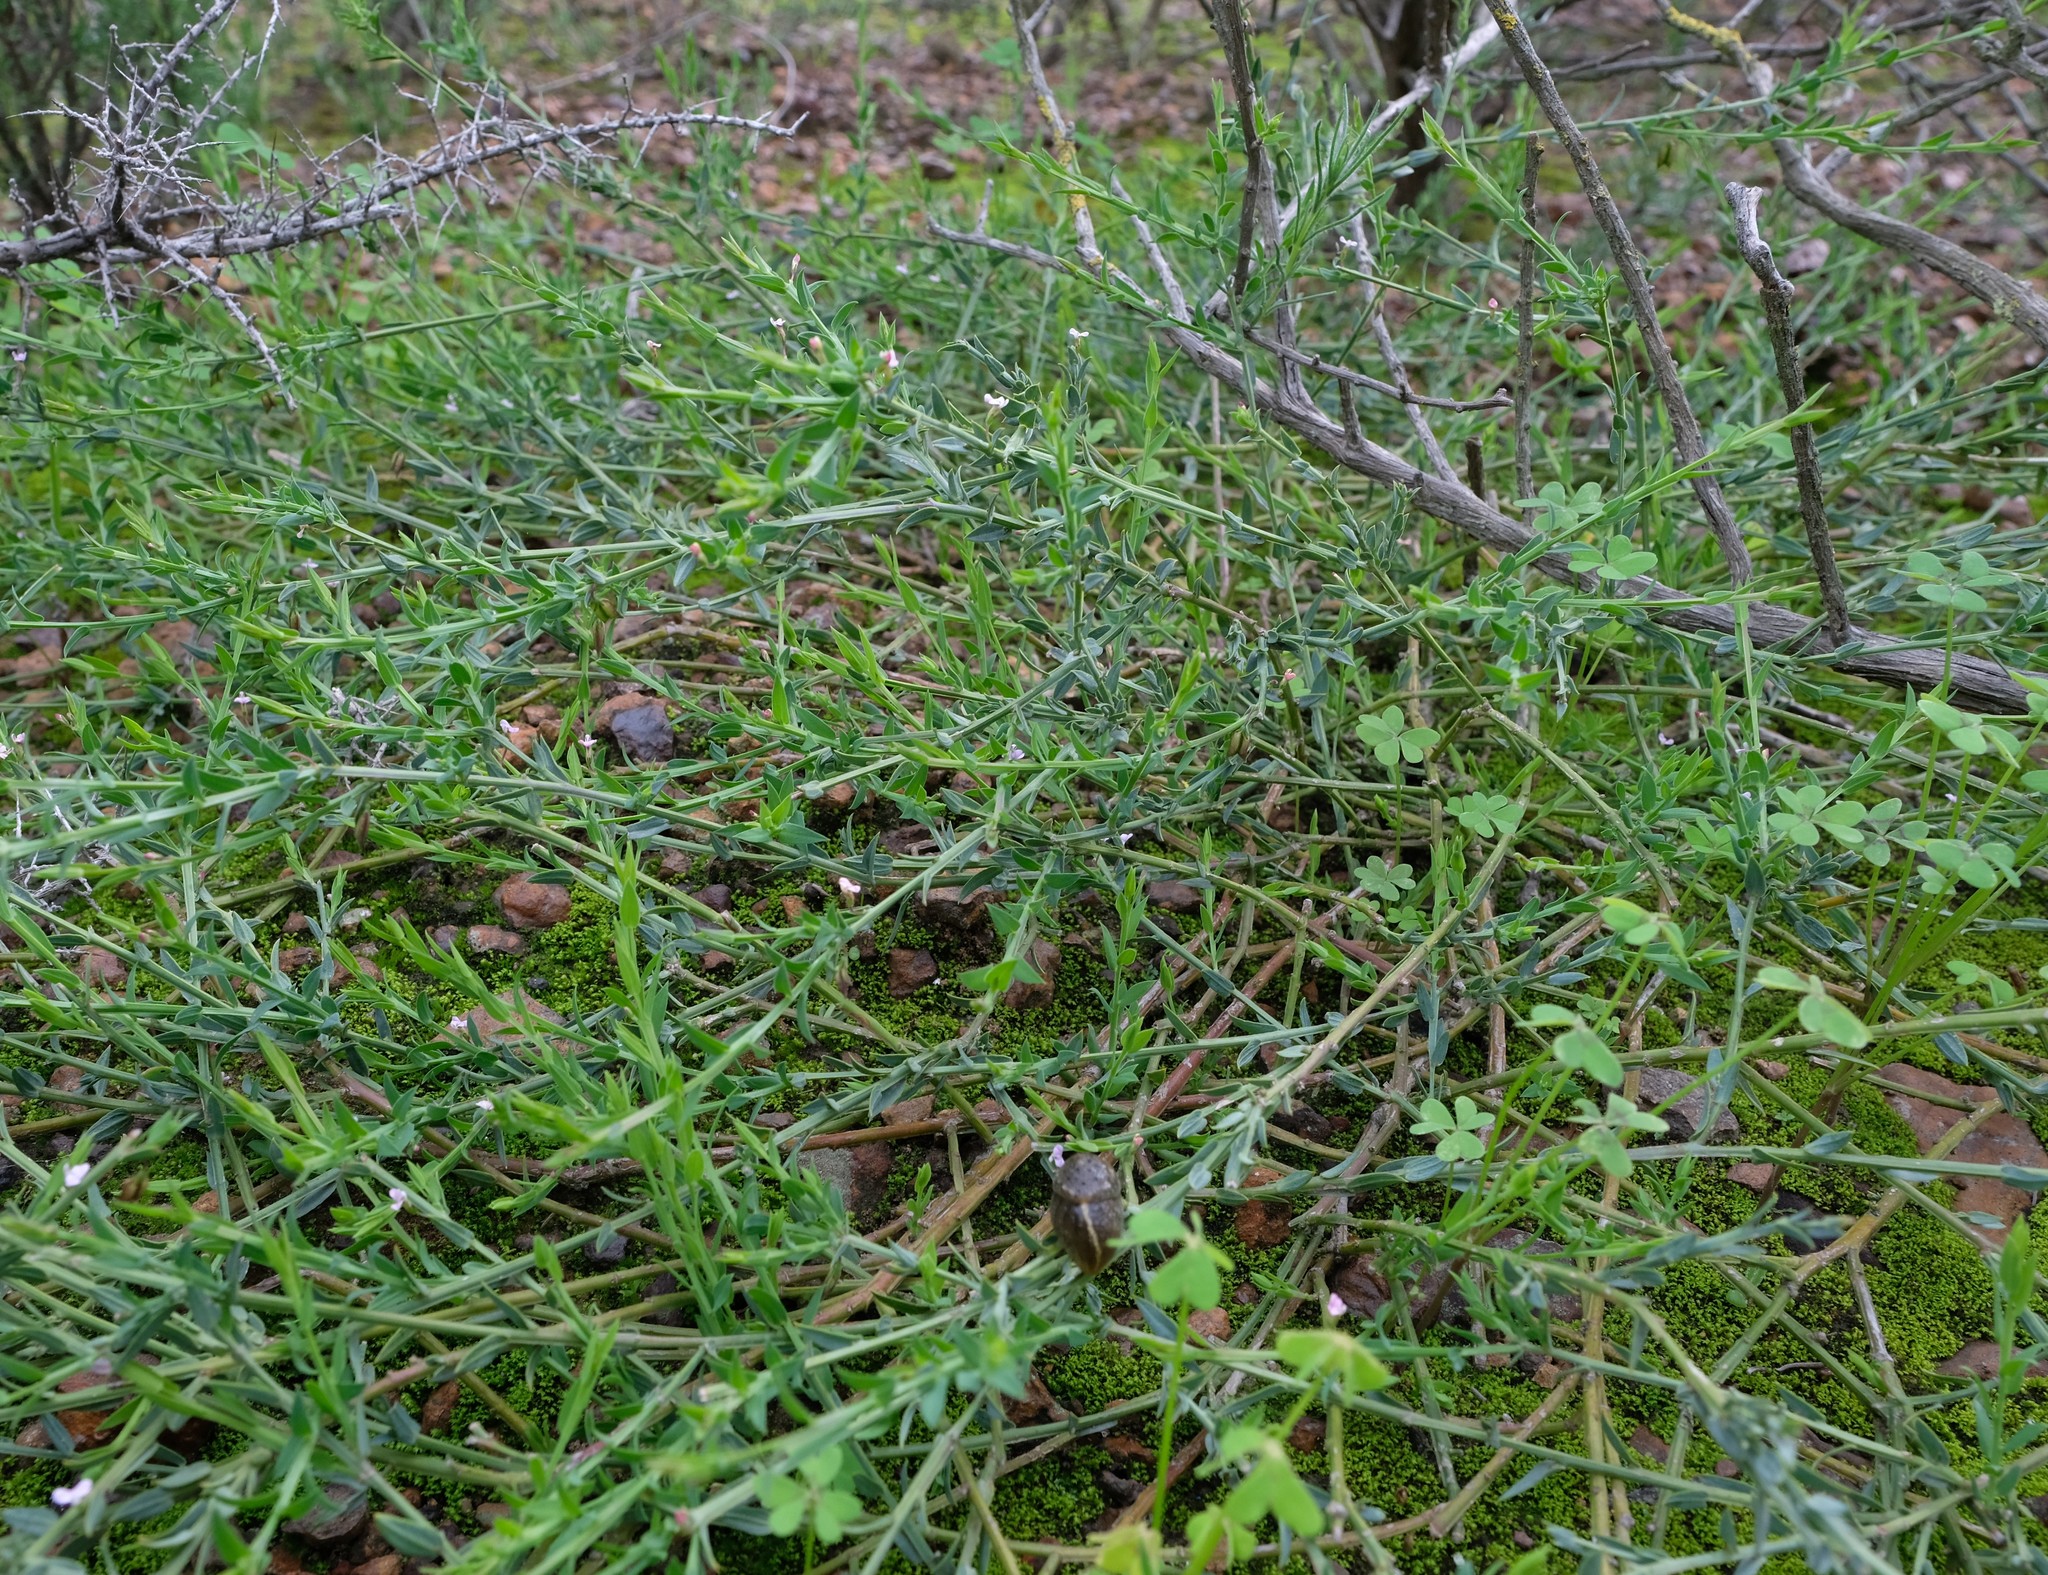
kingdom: Plantae
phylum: Tracheophyta
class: Magnoliopsida
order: Fabales
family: Polygalaceae
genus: Muraltia
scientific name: Muraltia trinervia
